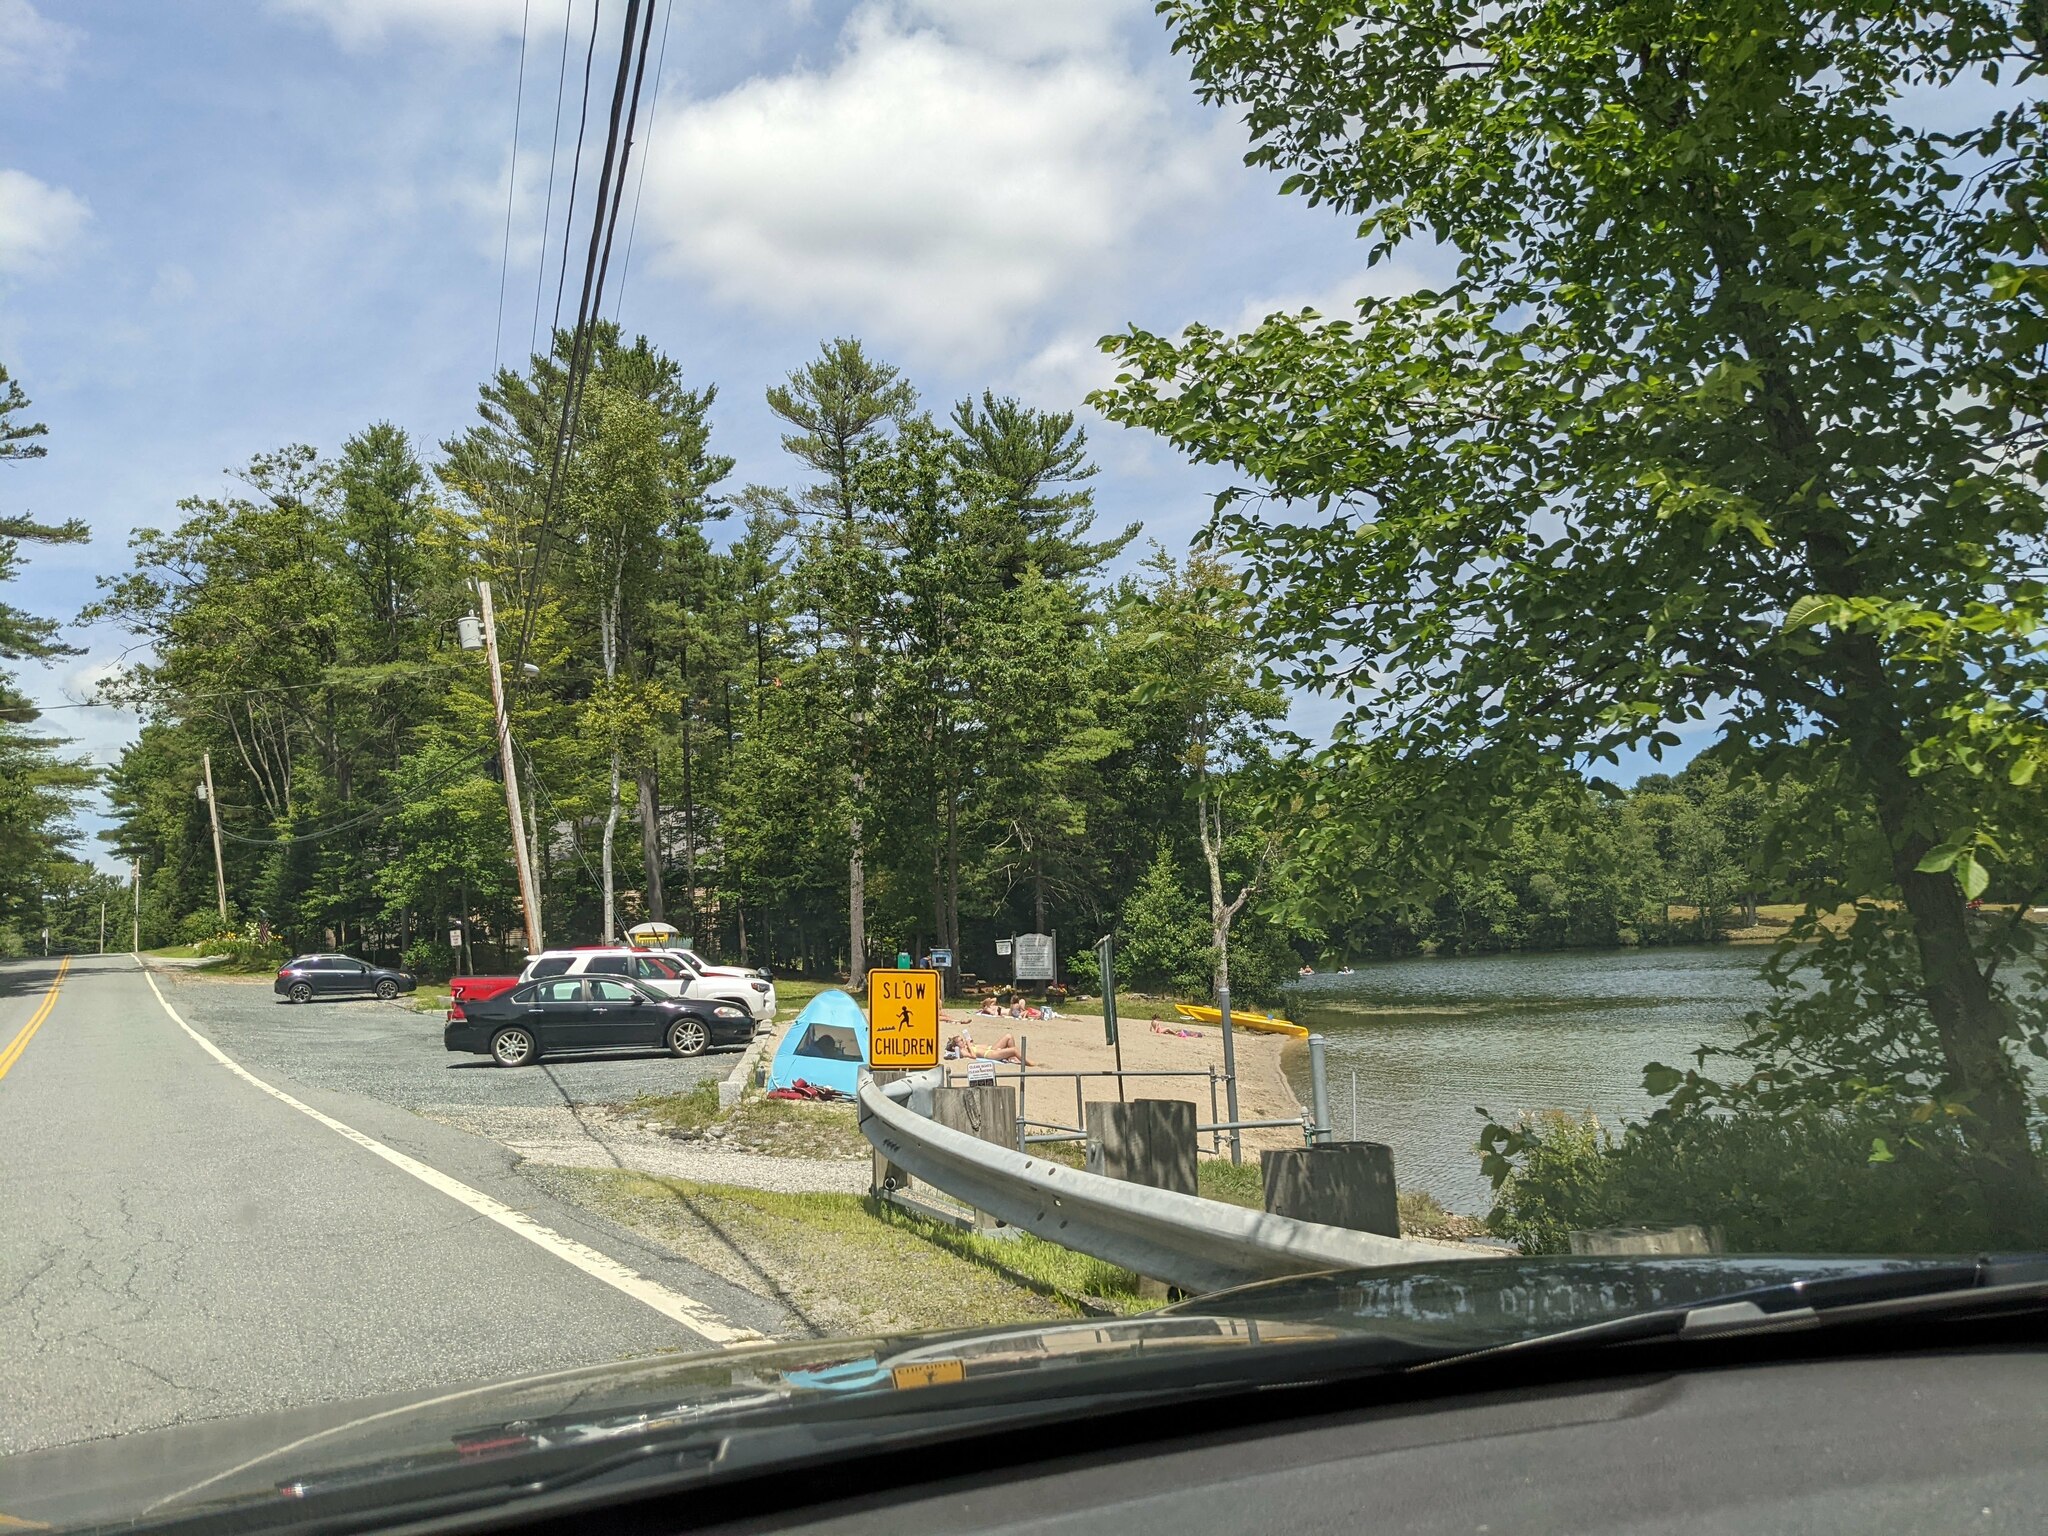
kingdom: Plantae
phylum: Tracheophyta
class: Pinopsida
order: Pinales
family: Pinaceae
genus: Pinus
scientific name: Pinus strobus
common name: Weymouth pine
